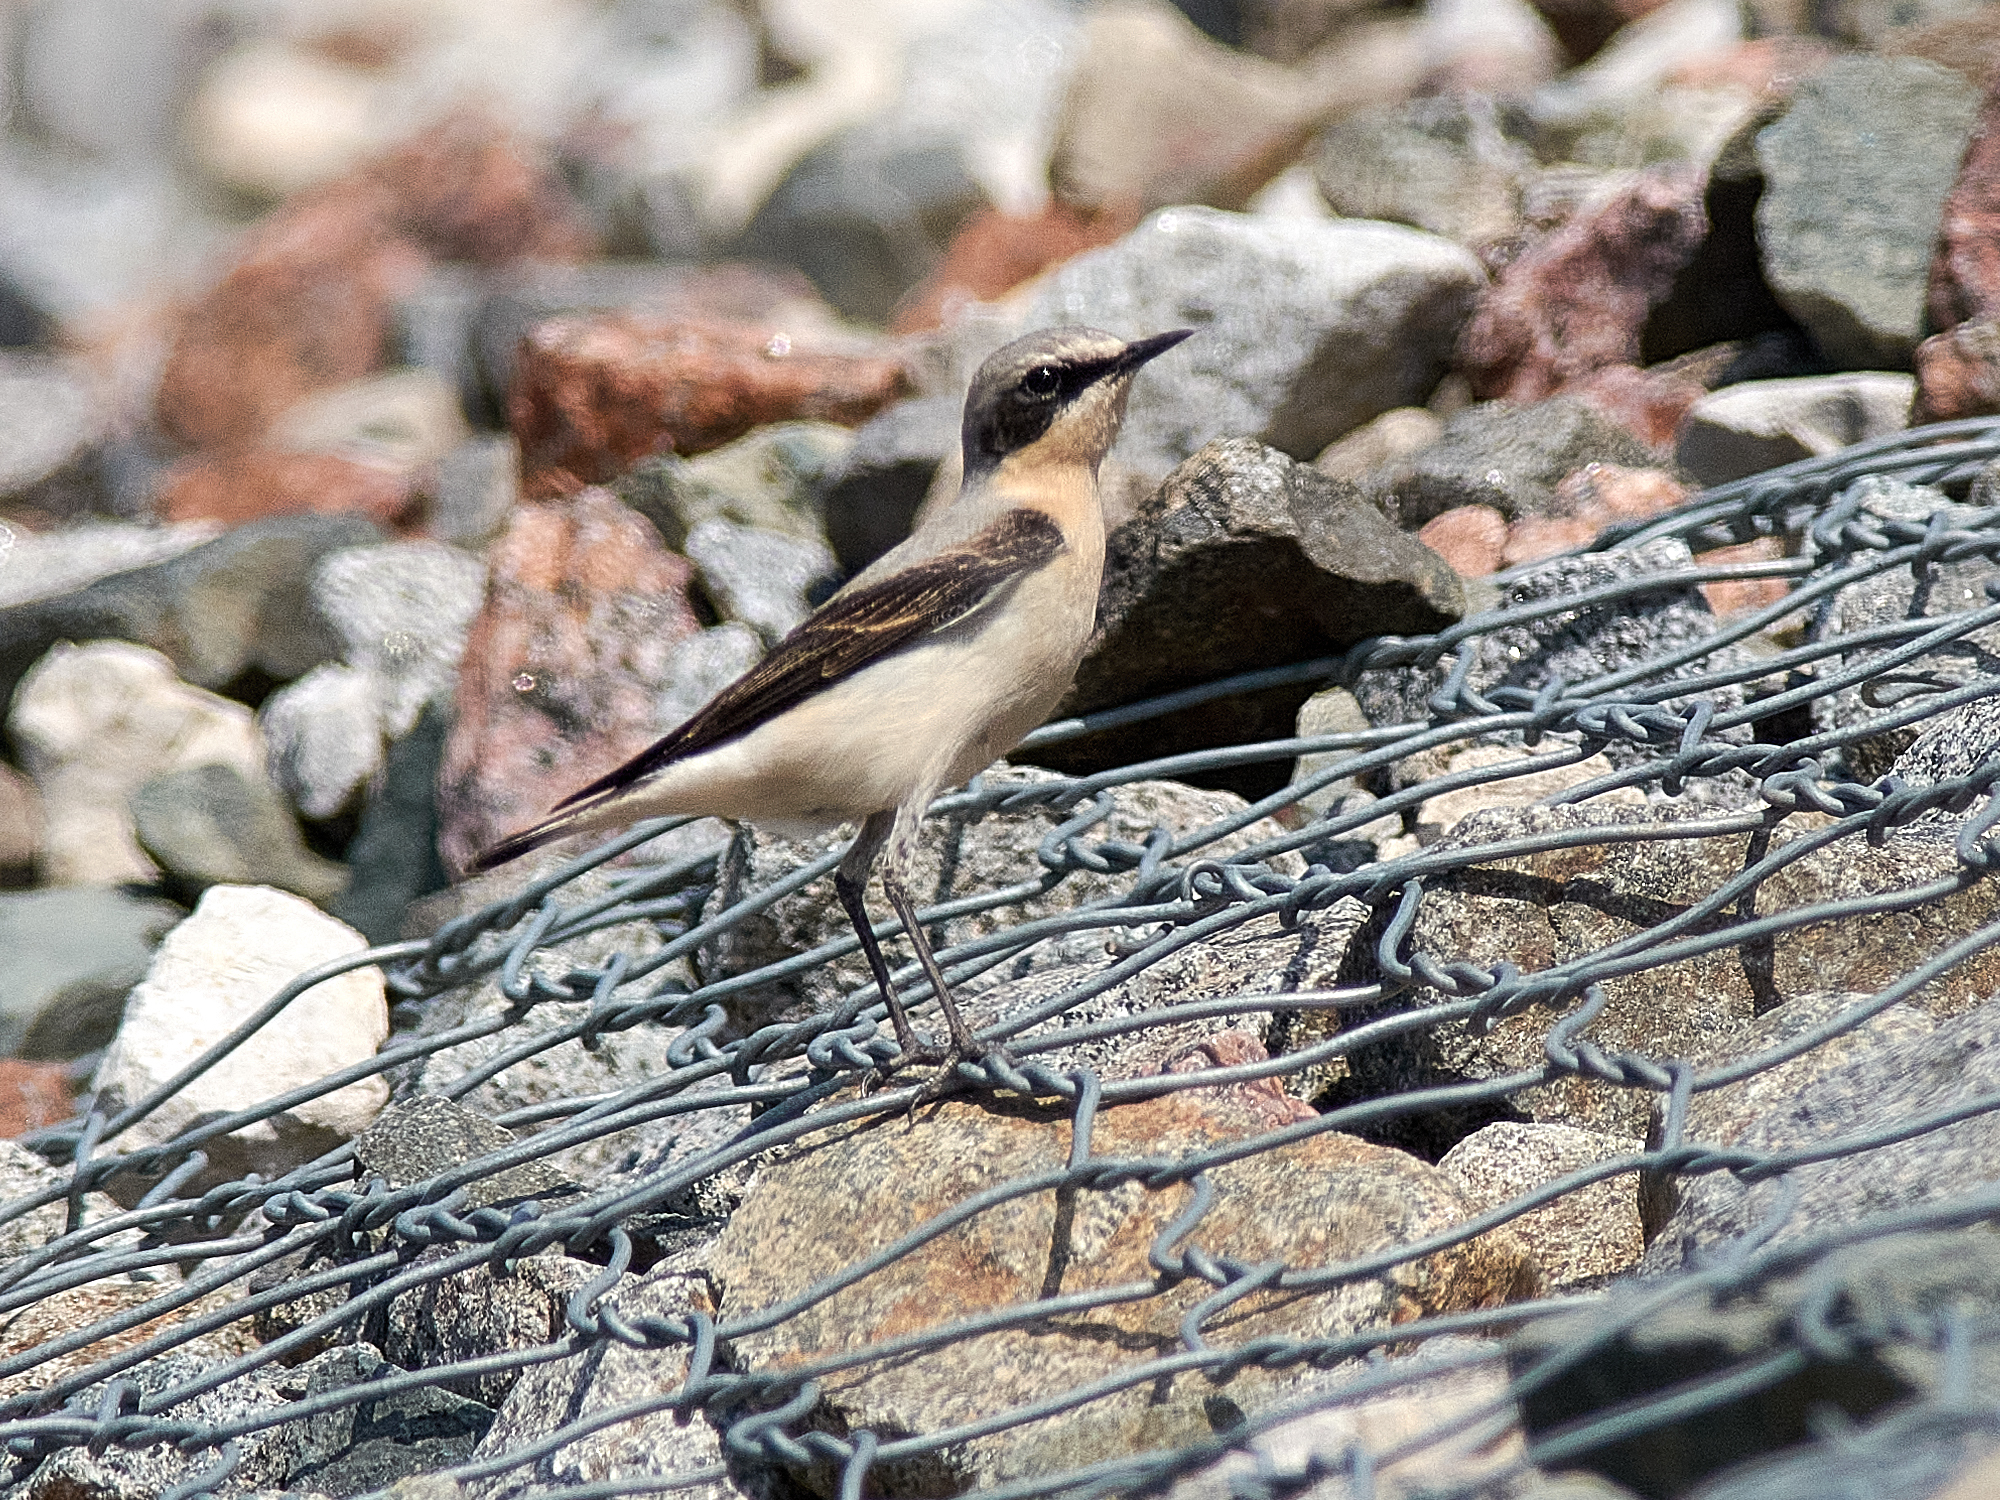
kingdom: Animalia
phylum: Chordata
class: Aves
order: Passeriformes
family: Muscicapidae
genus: Oenanthe
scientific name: Oenanthe oenanthe
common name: Northern wheatear
